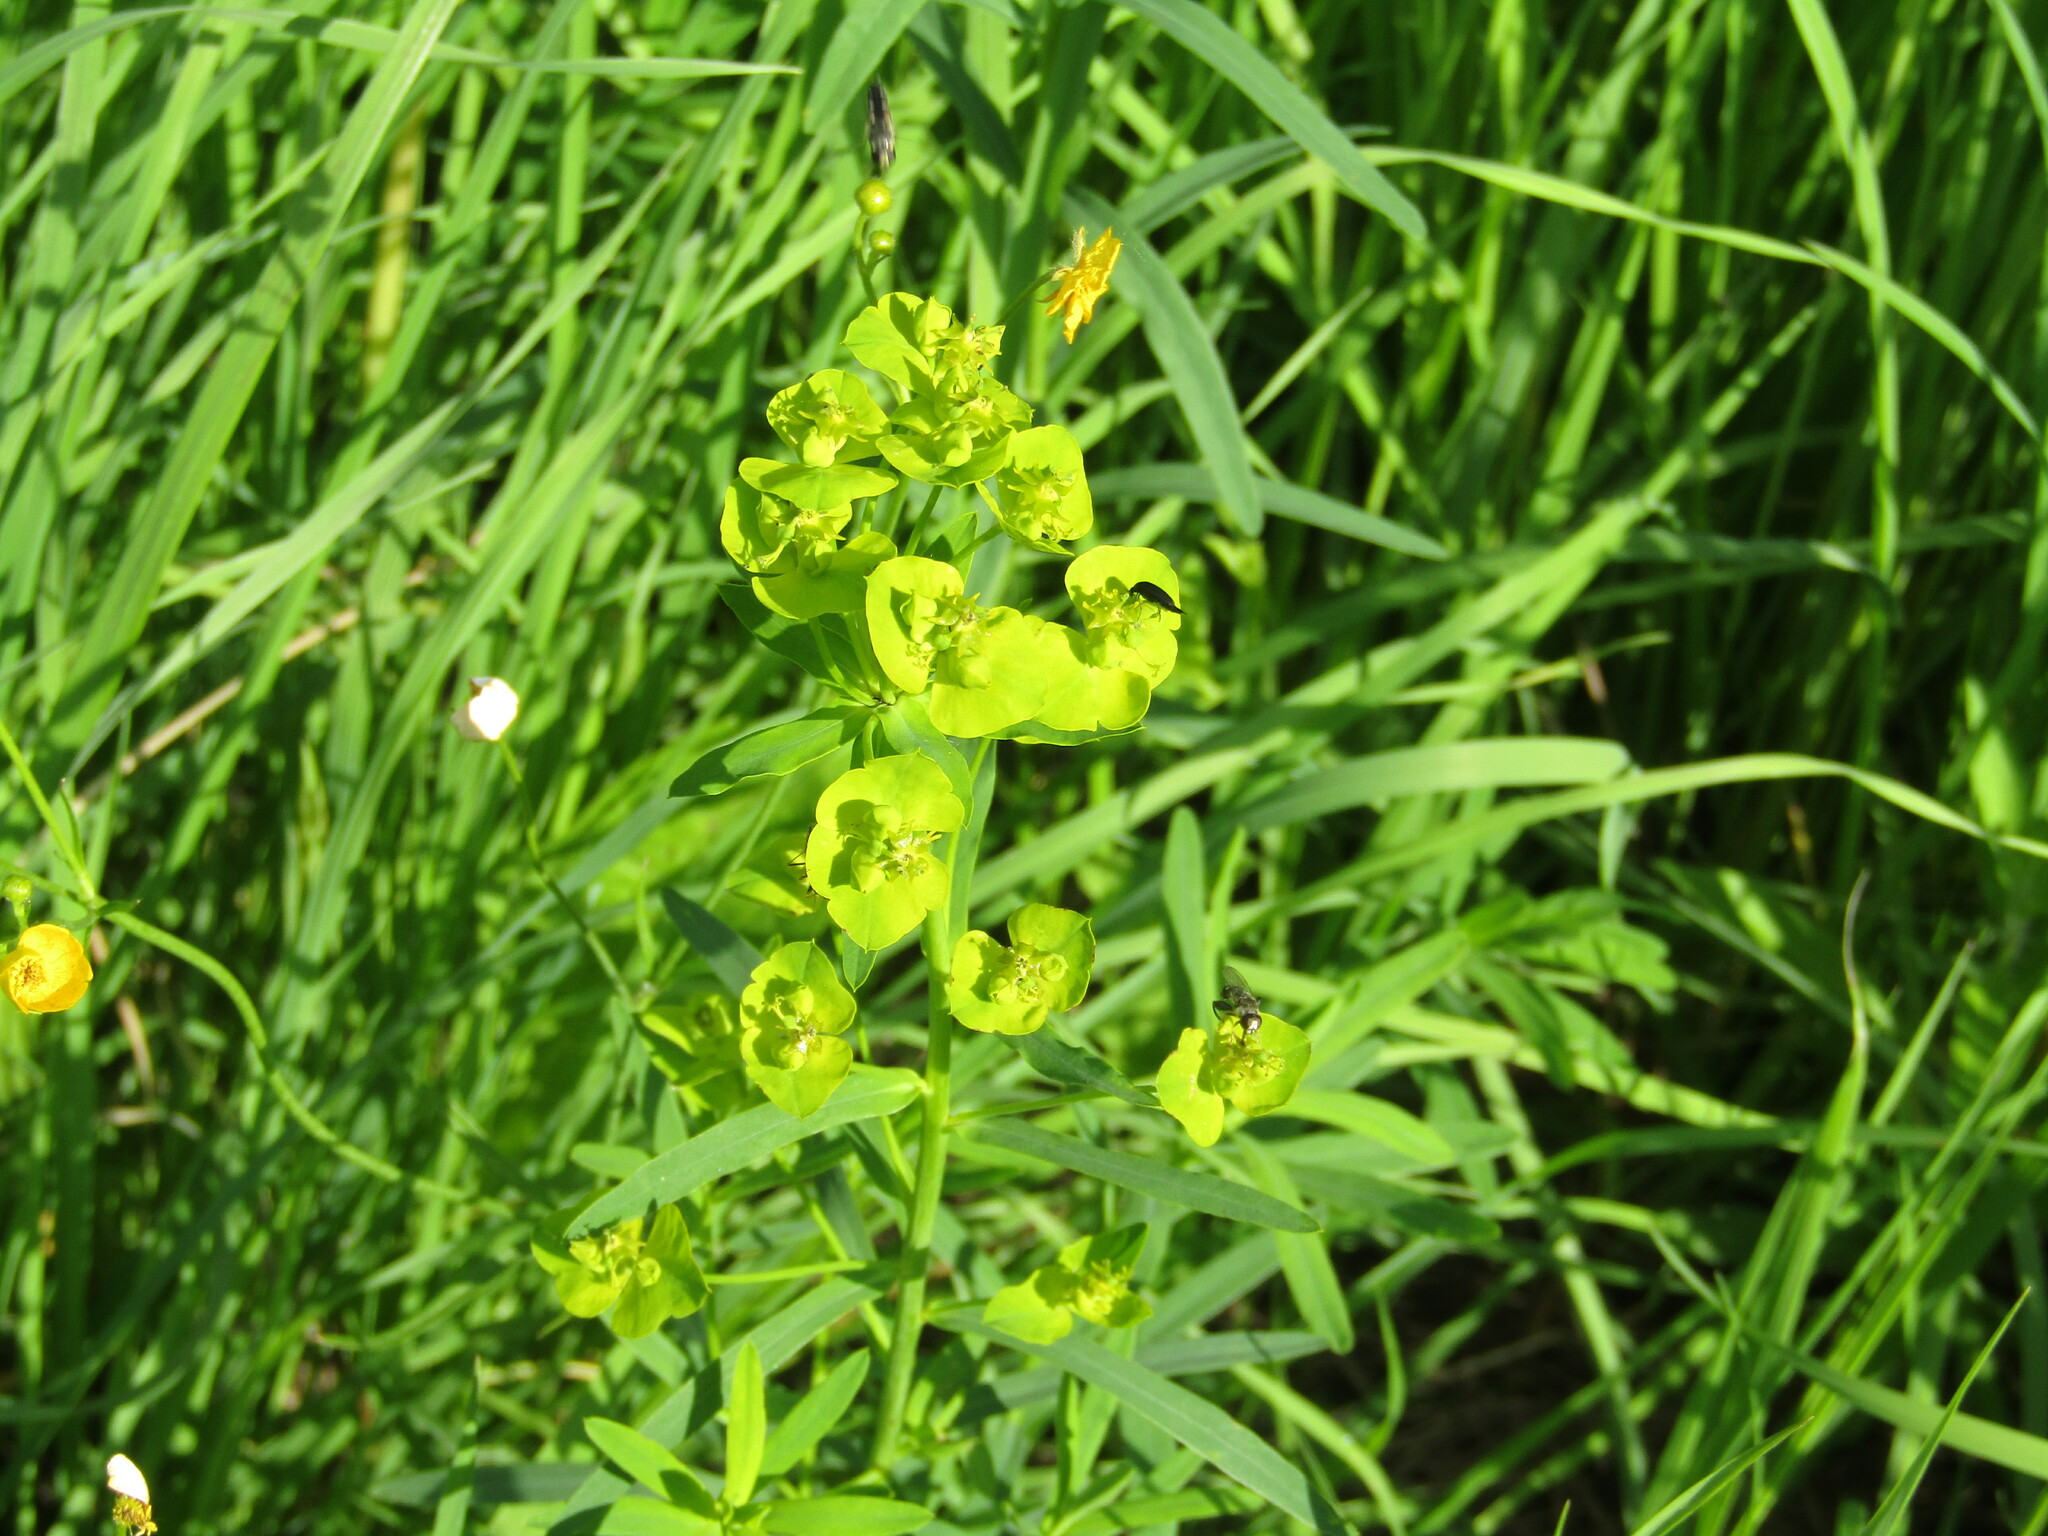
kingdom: Plantae
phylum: Tracheophyta
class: Magnoliopsida
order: Malpighiales
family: Euphorbiaceae
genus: Euphorbia
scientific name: Euphorbia virgata
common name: Leafy spurge
